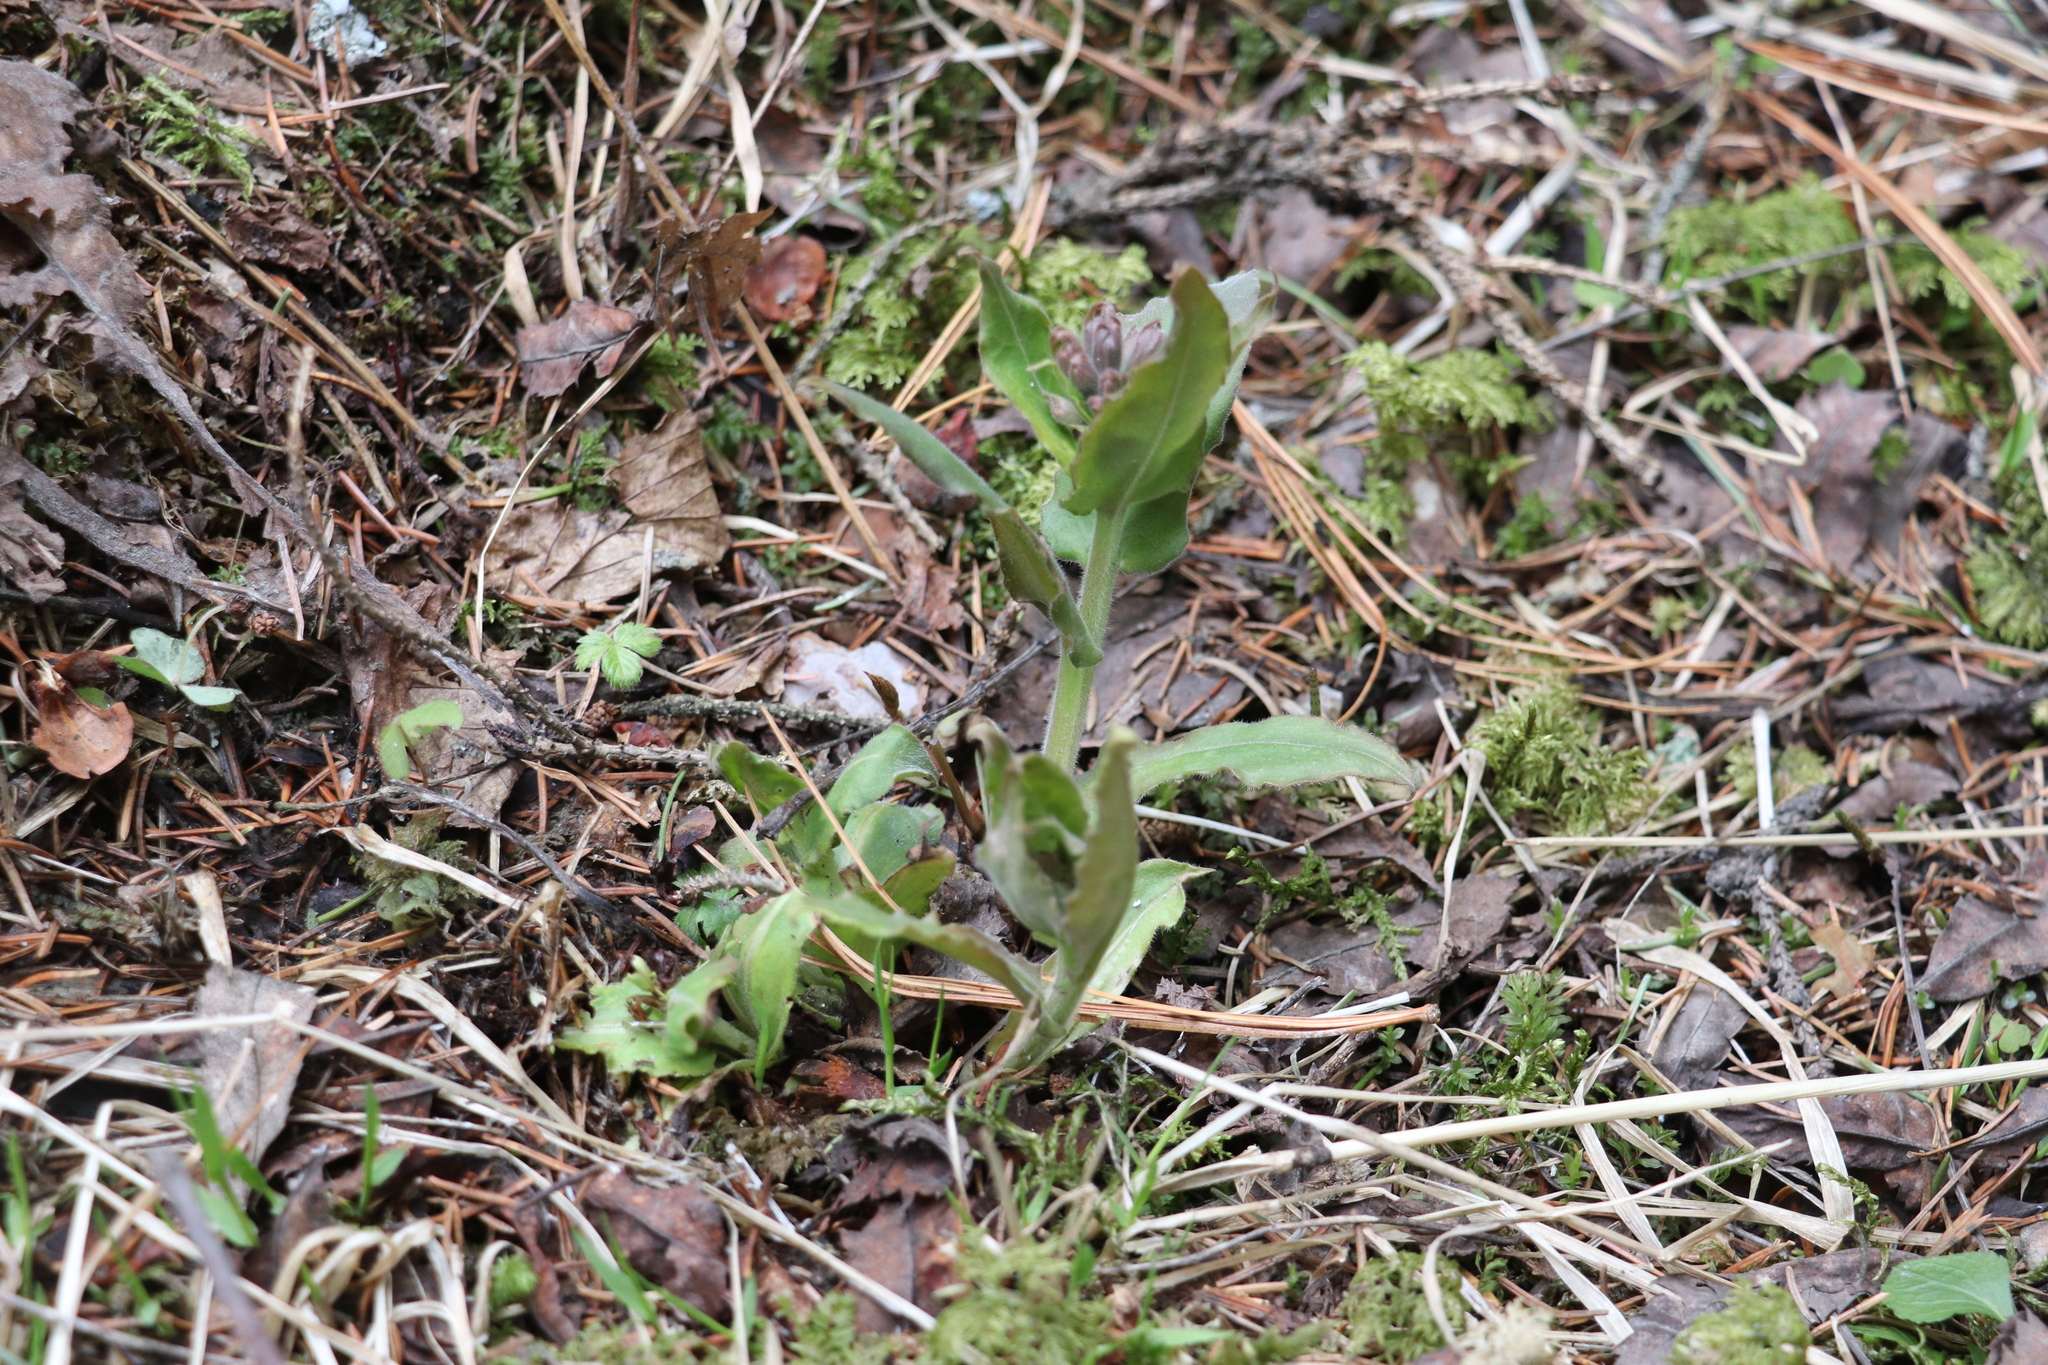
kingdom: Plantae
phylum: Tracheophyta
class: Magnoliopsida
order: Boraginales
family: Boraginaceae
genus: Pulmonaria
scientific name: Pulmonaria mollis
